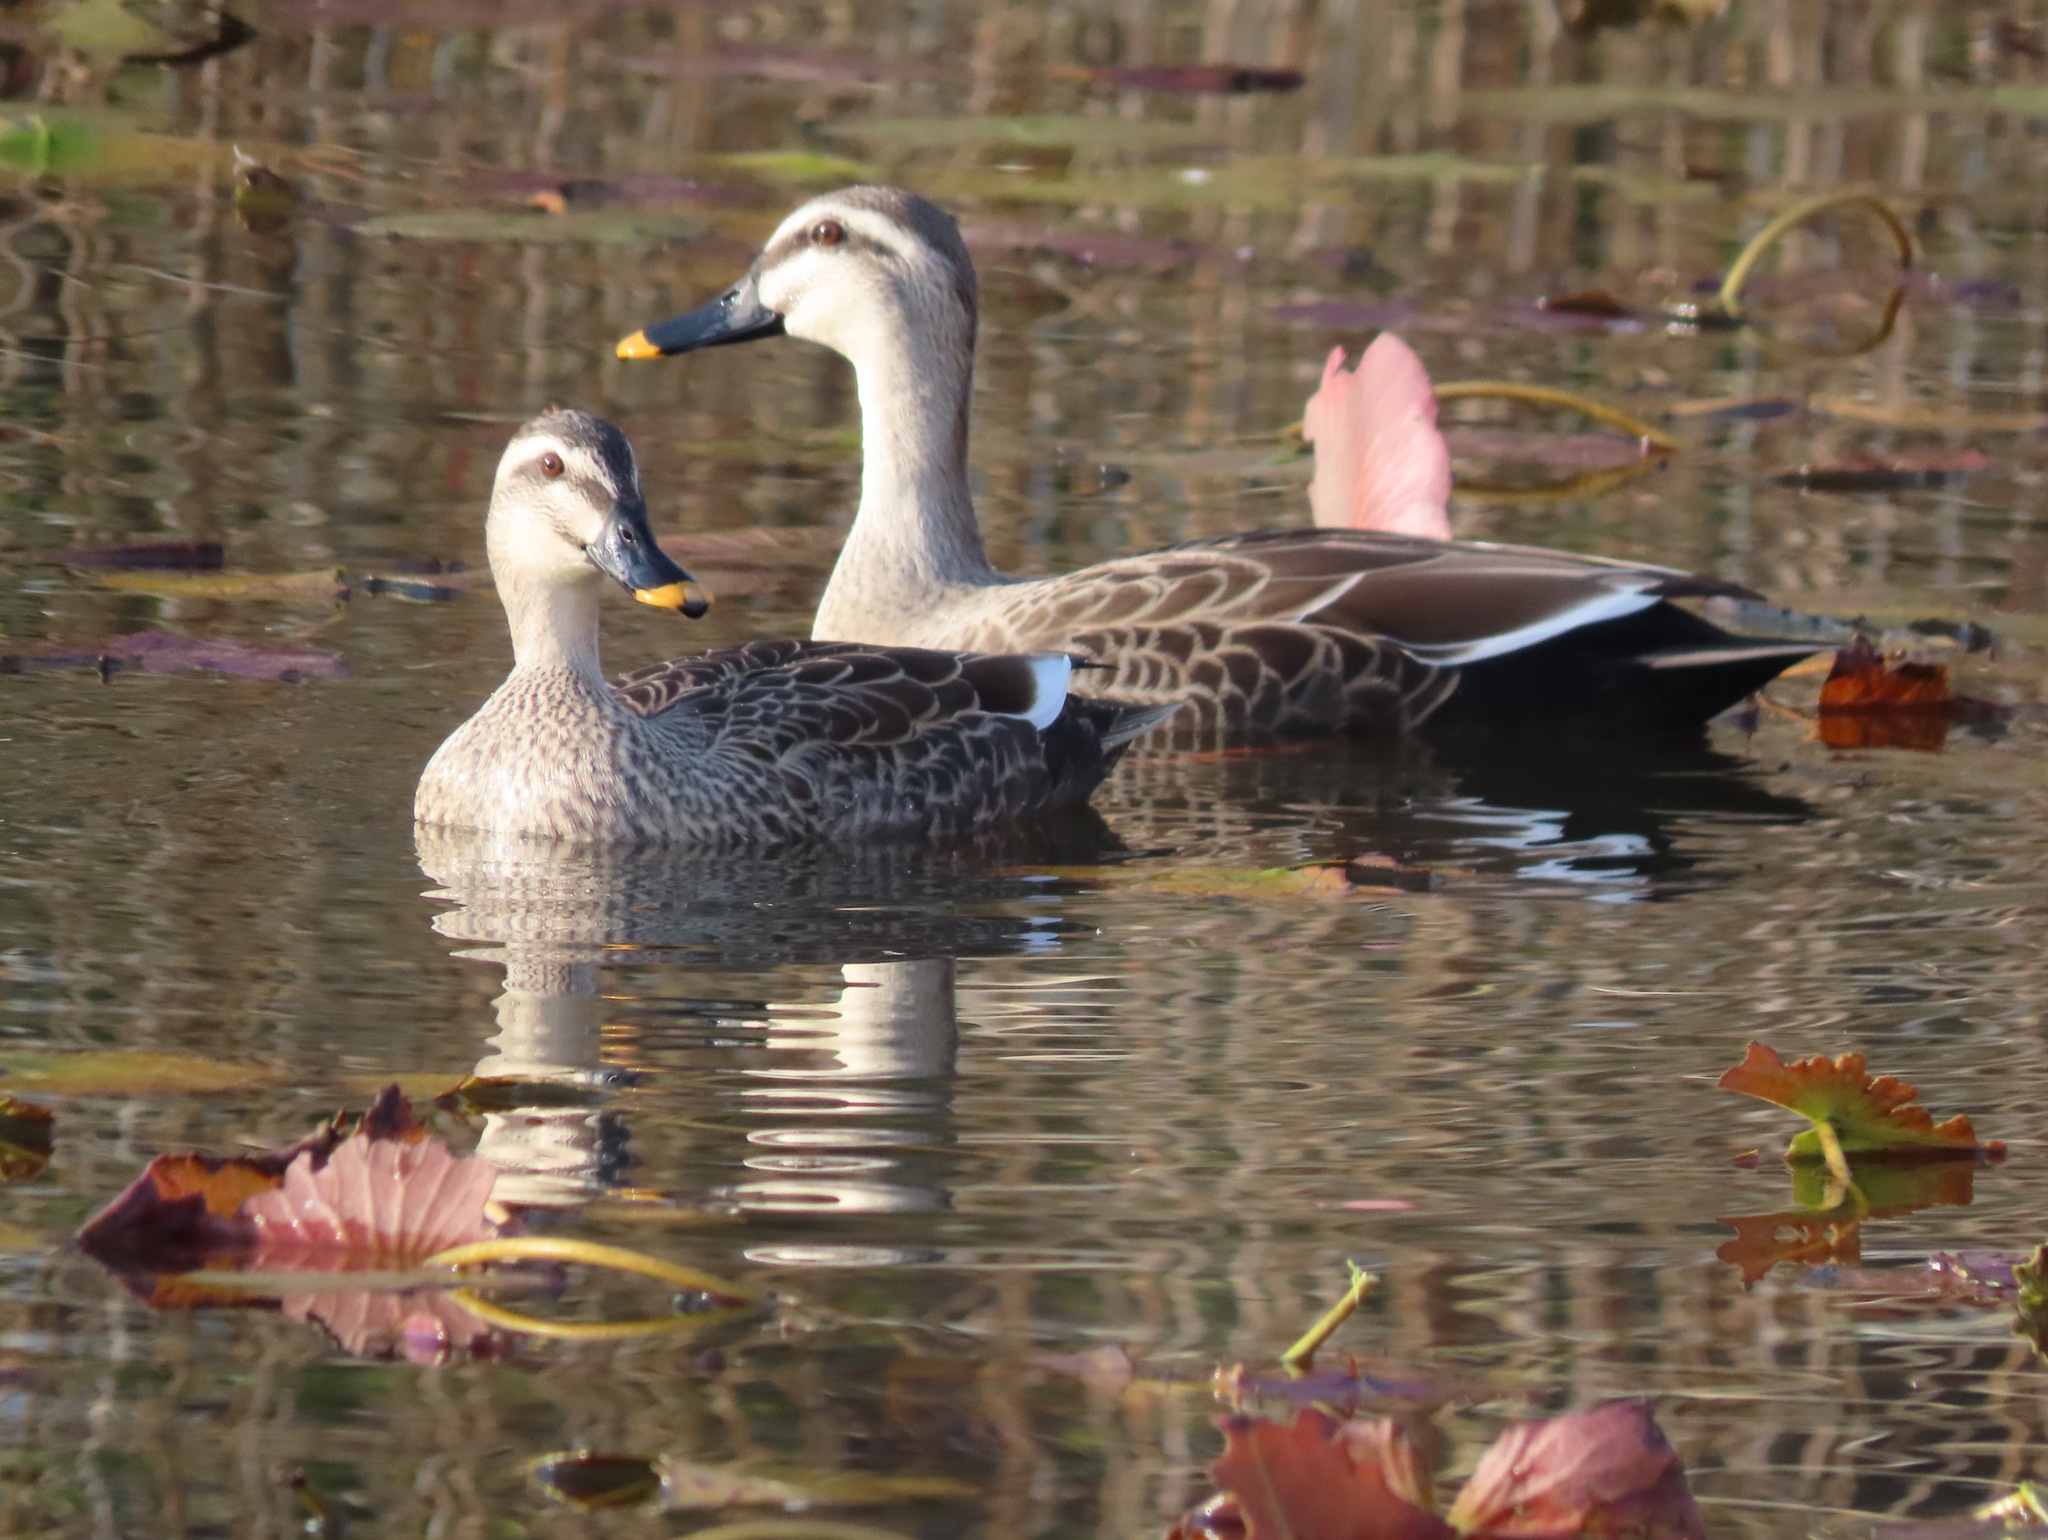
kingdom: Animalia
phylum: Chordata
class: Aves
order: Anseriformes
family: Anatidae
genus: Anas
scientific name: Anas zonorhyncha
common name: Eastern spot-billed duck
